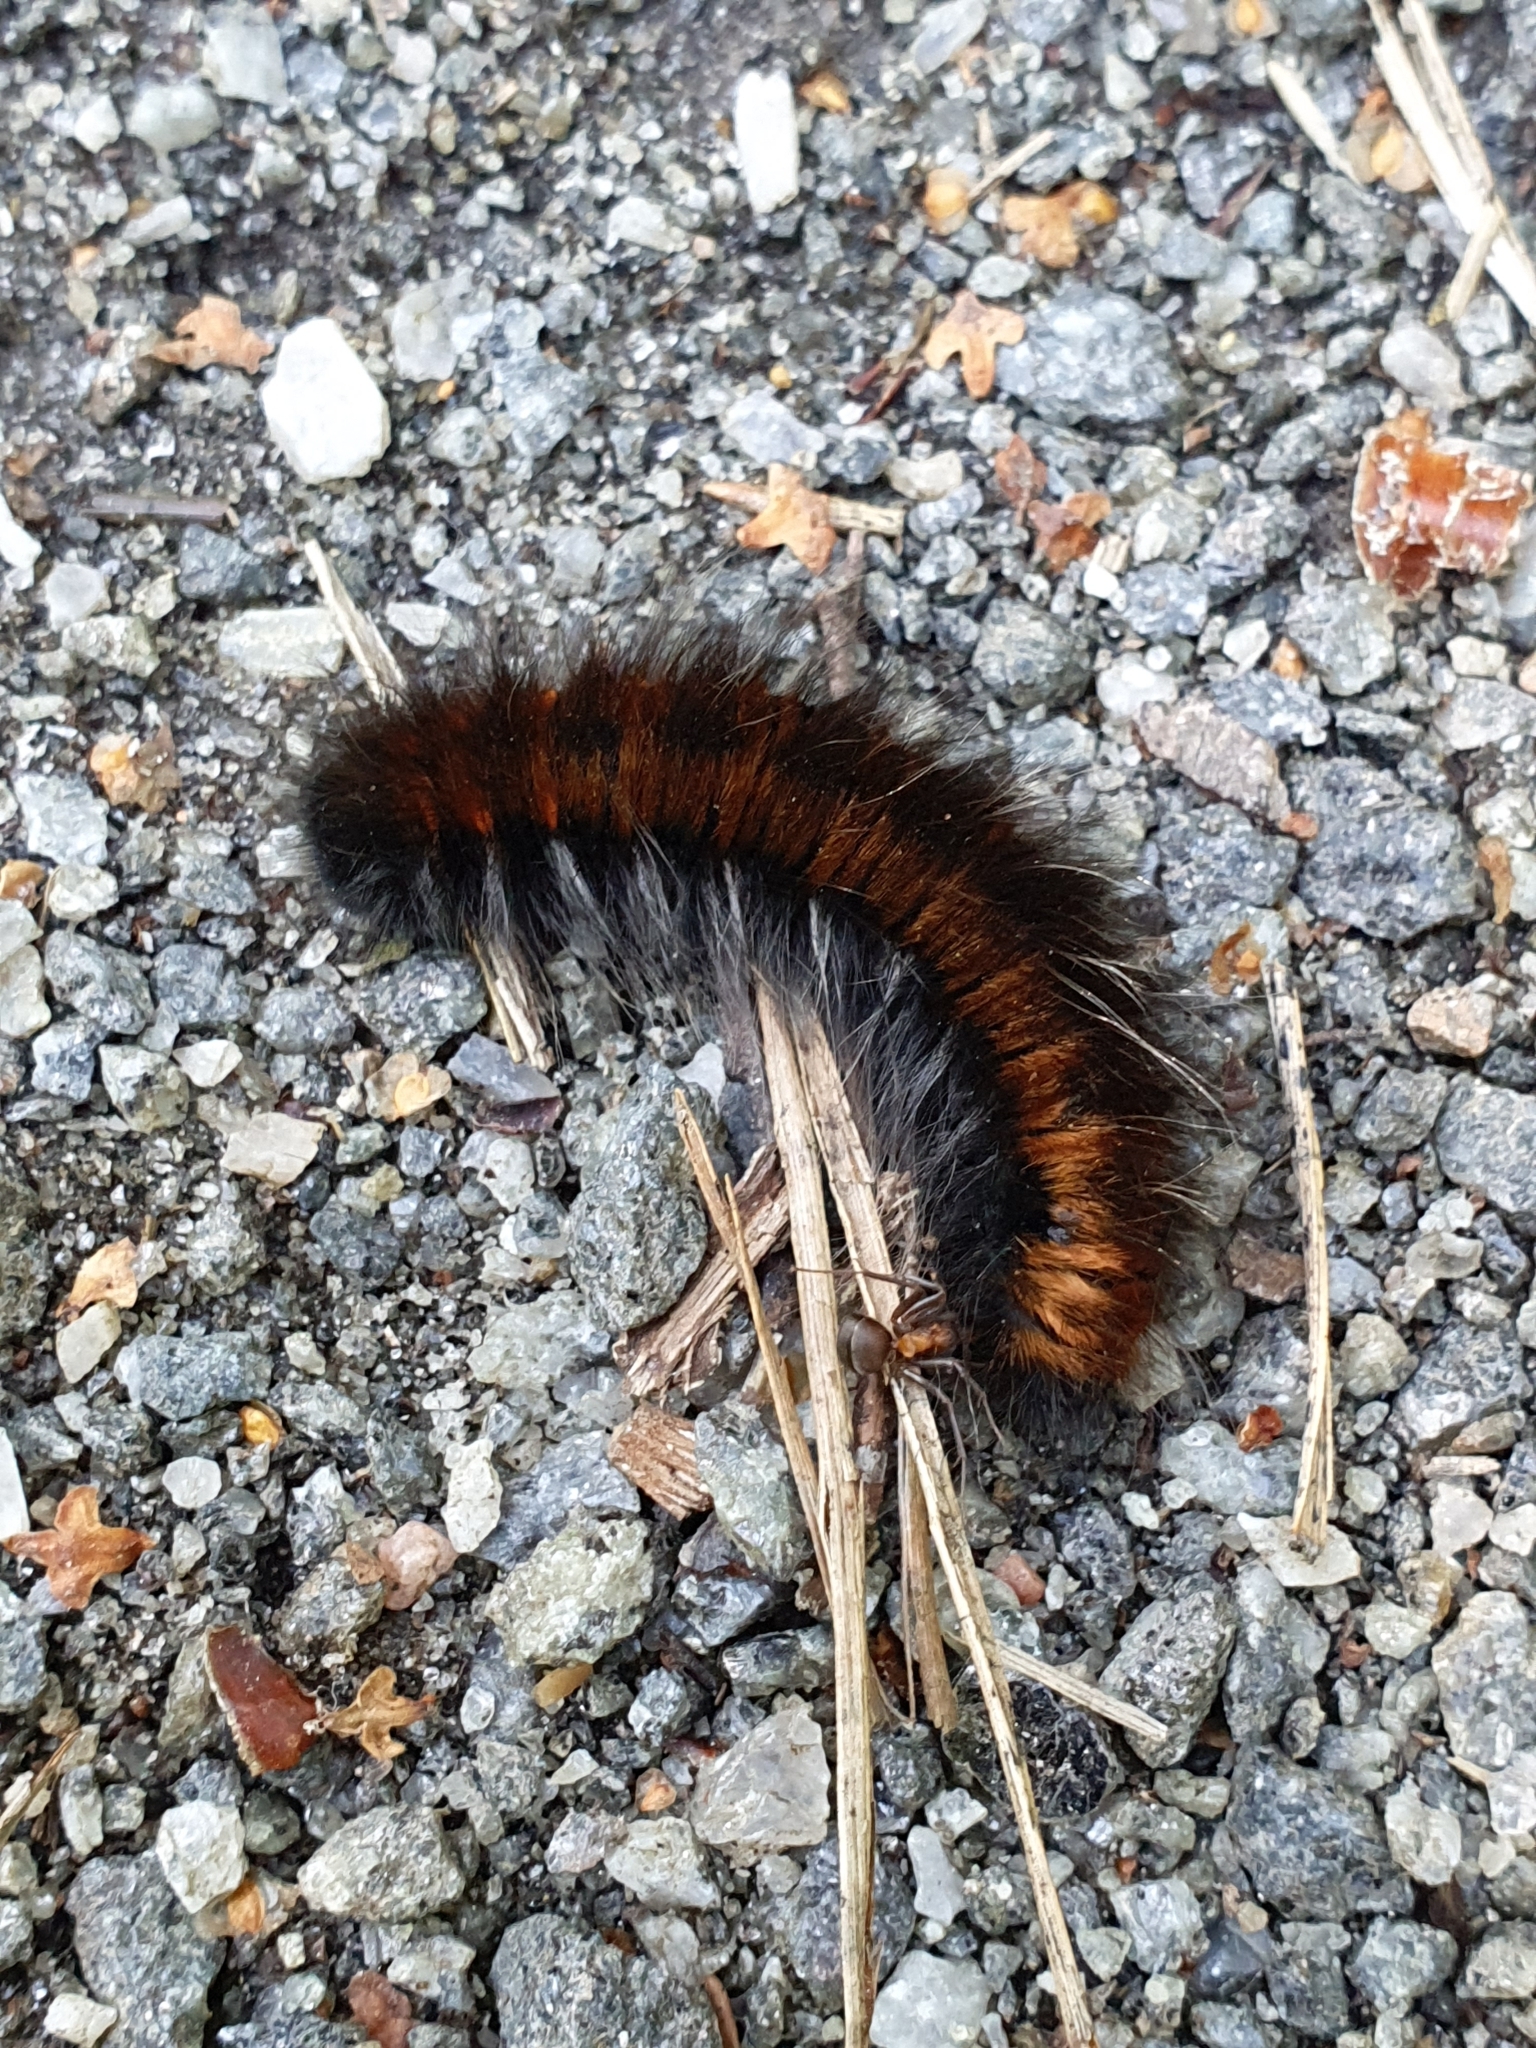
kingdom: Animalia
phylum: Arthropoda
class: Insecta
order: Lepidoptera
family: Lasiocampidae
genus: Macrothylacia
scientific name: Macrothylacia rubi
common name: Fox moth
